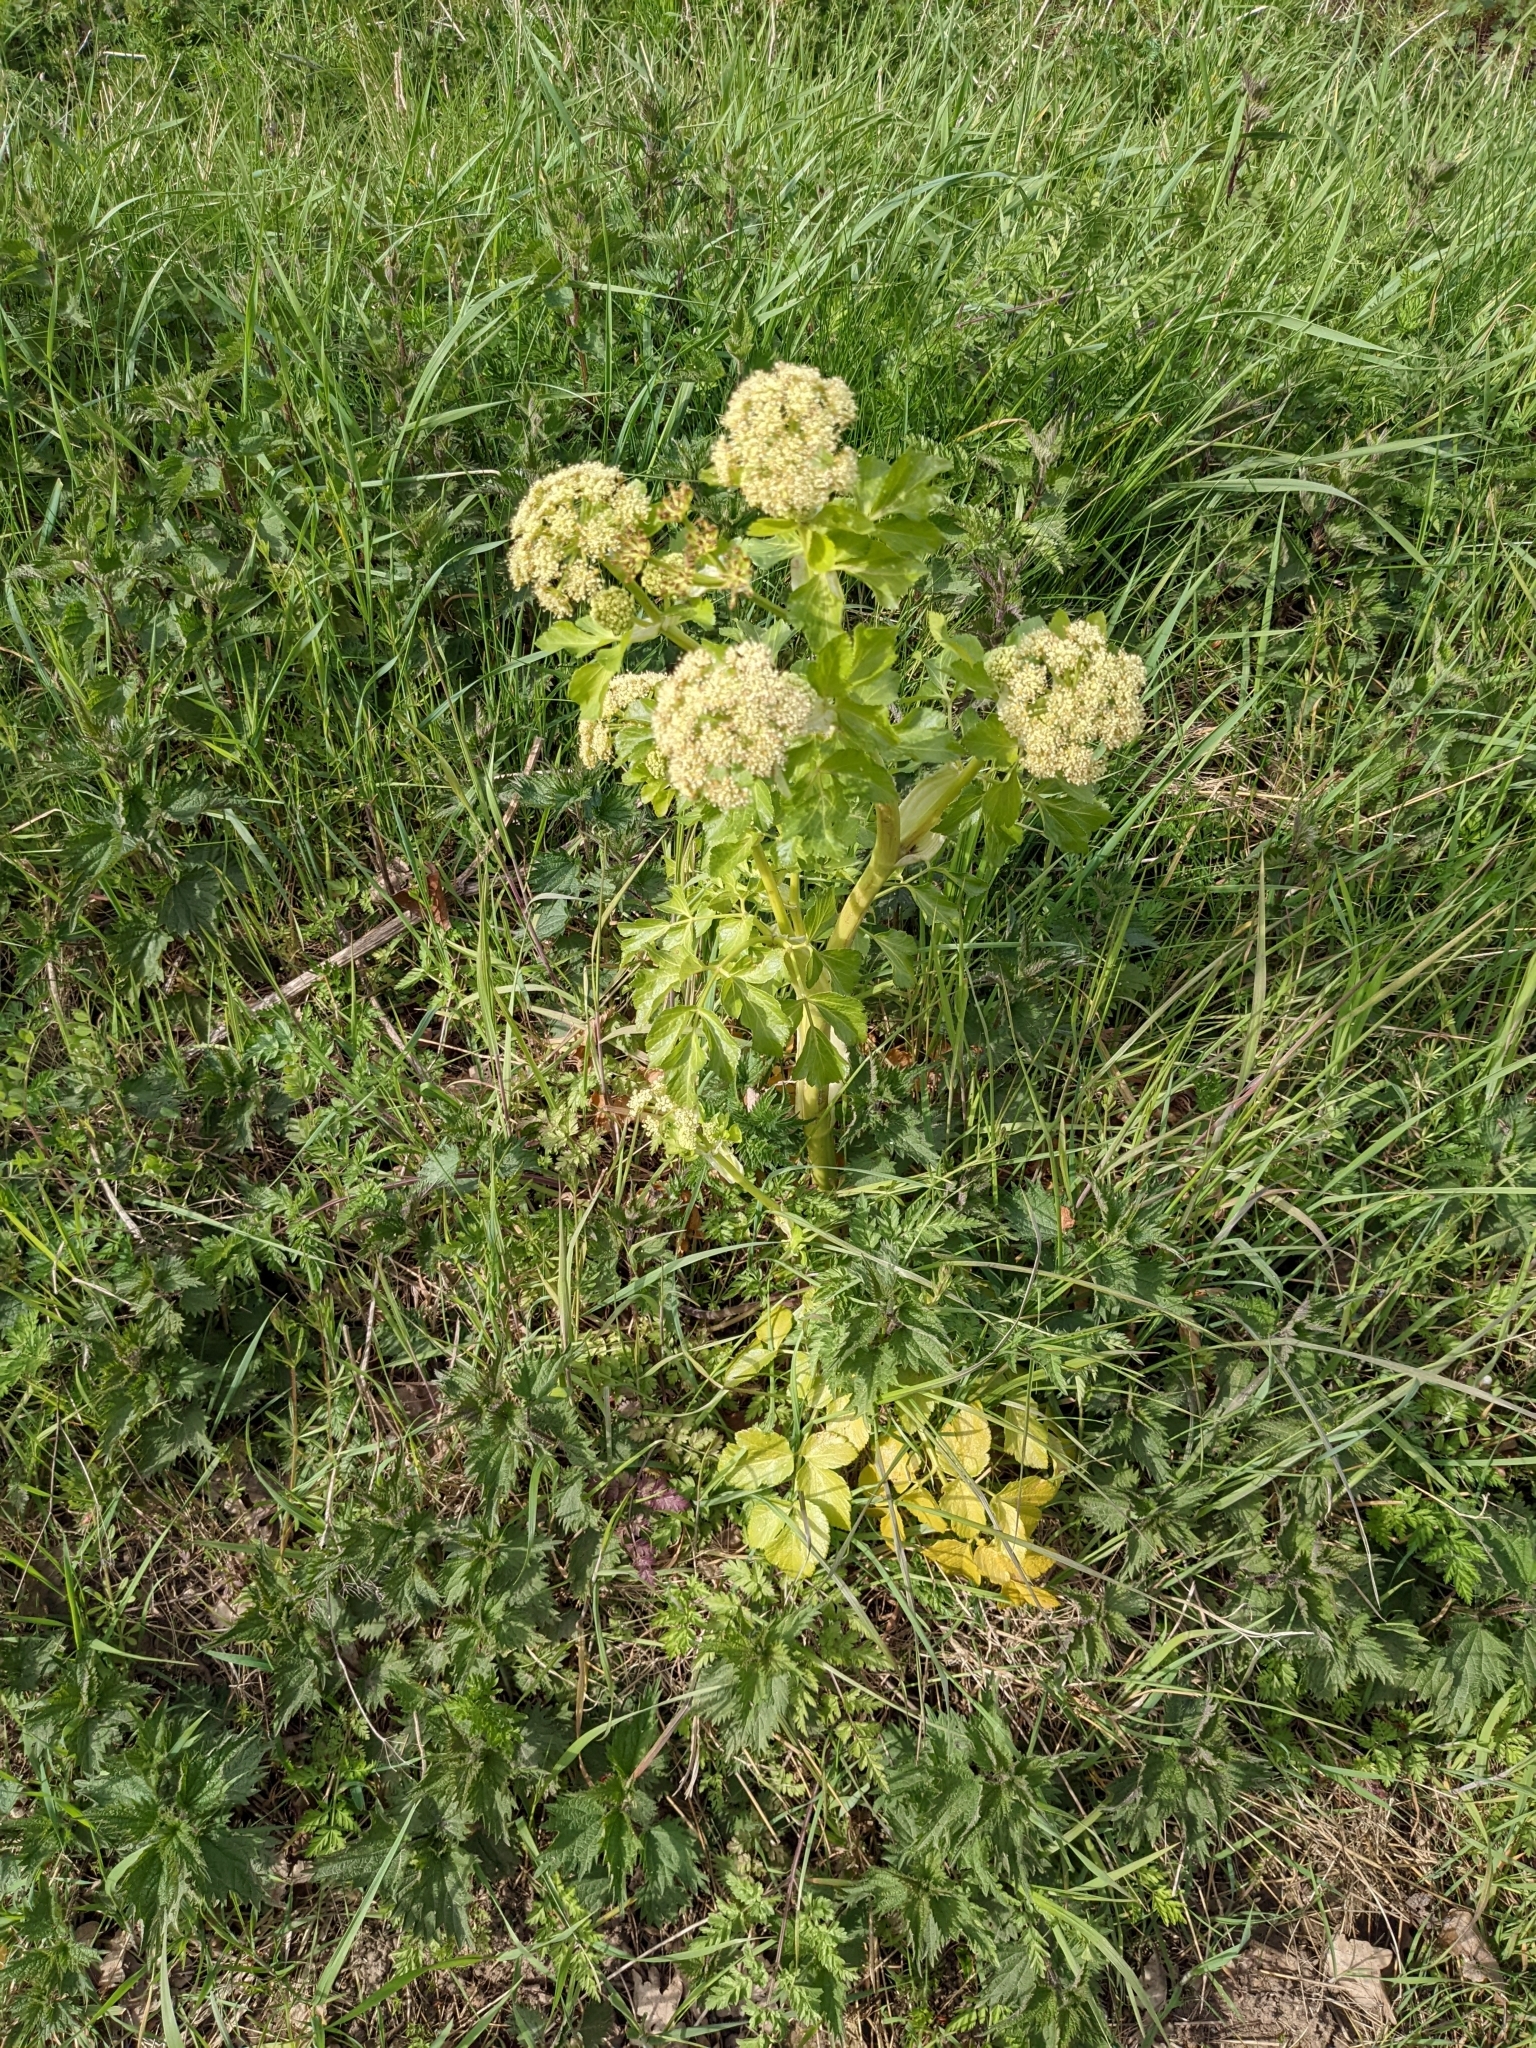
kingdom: Plantae
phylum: Tracheophyta
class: Magnoliopsida
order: Apiales
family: Apiaceae
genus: Smyrnium
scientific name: Smyrnium olusatrum
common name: Alexanders
